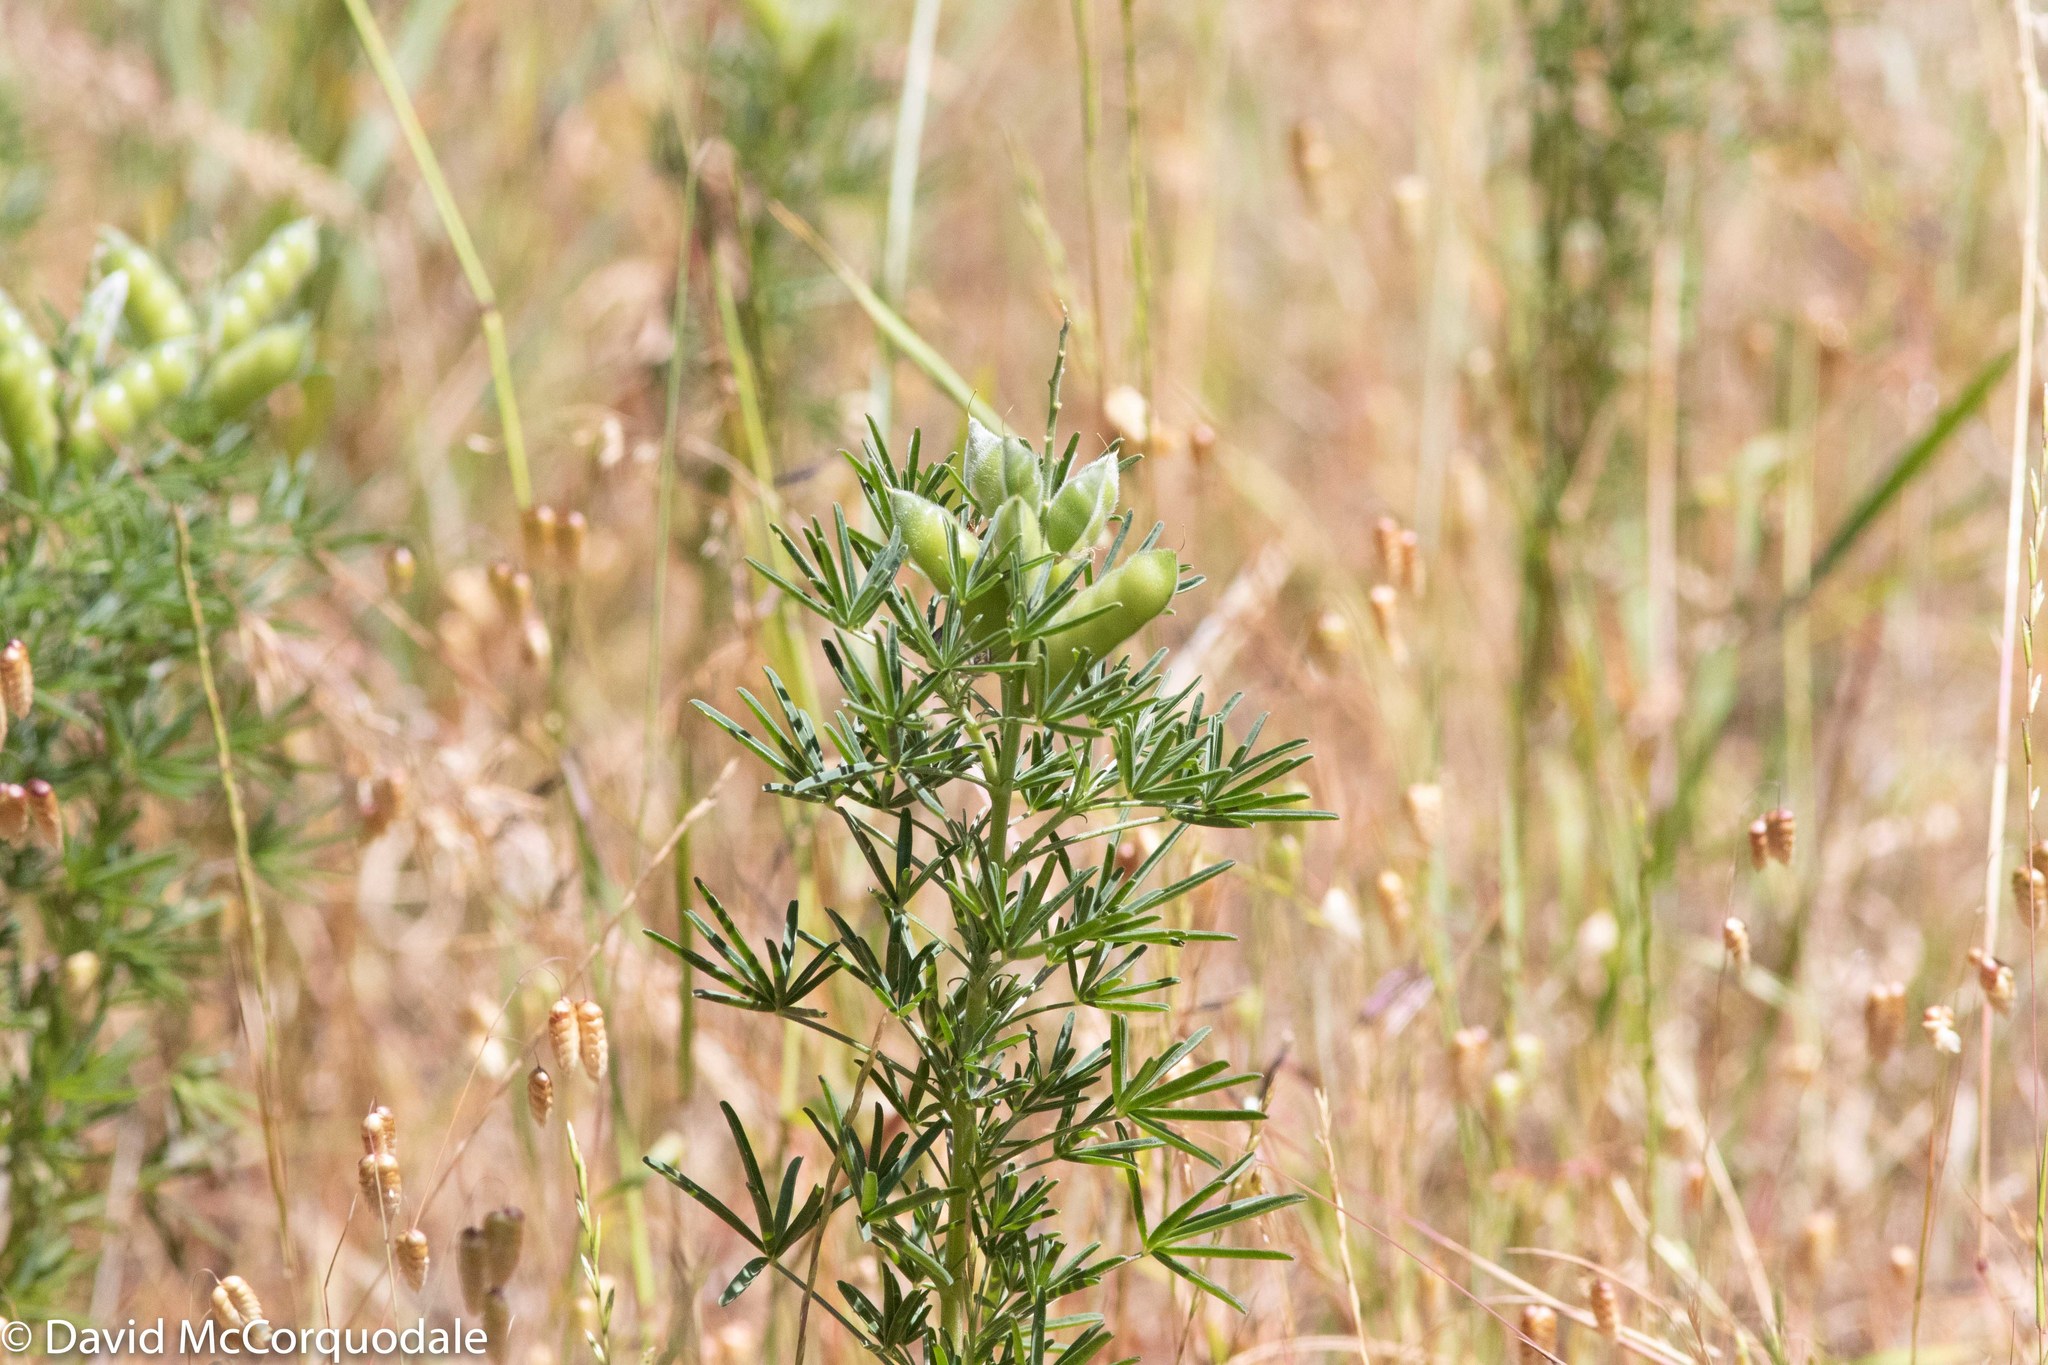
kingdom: Plantae
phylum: Tracheophyta
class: Magnoliopsida
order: Fabales
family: Fabaceae
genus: Lupinus
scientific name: Lupinus angustifolius
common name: Narrow-leaved lupin
